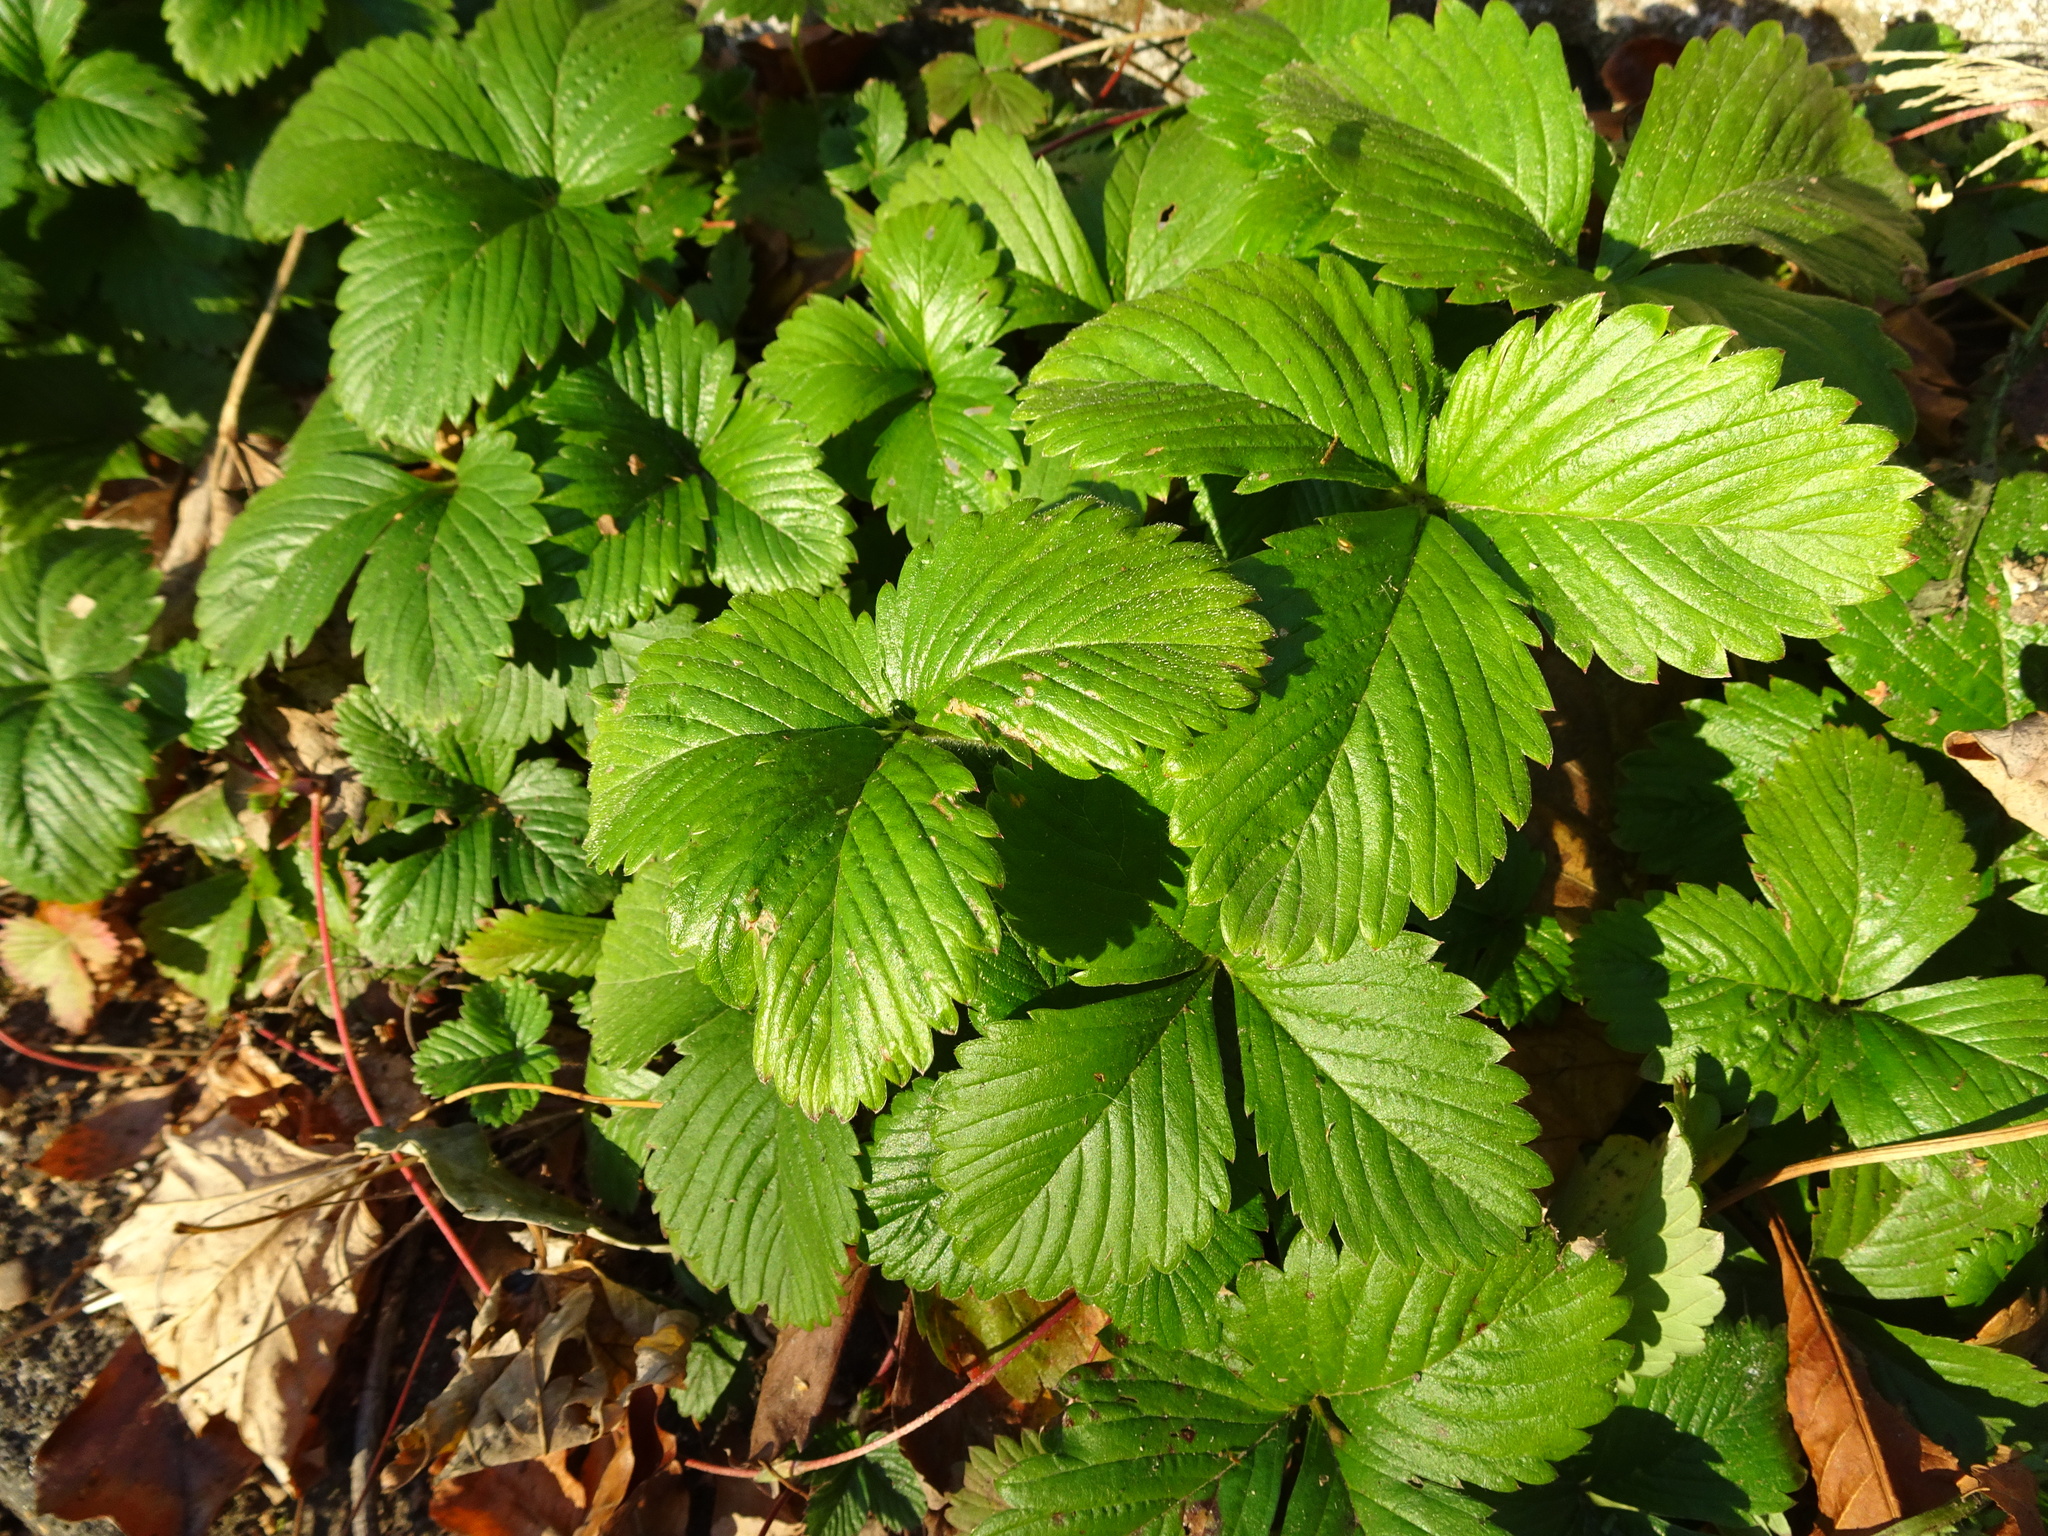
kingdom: Plantae
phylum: Tracheophyta
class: Magnoliopsida
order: Rosales
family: Rosaceae
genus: Fragaria
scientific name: Fragaria vesca
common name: Wild strawberry
